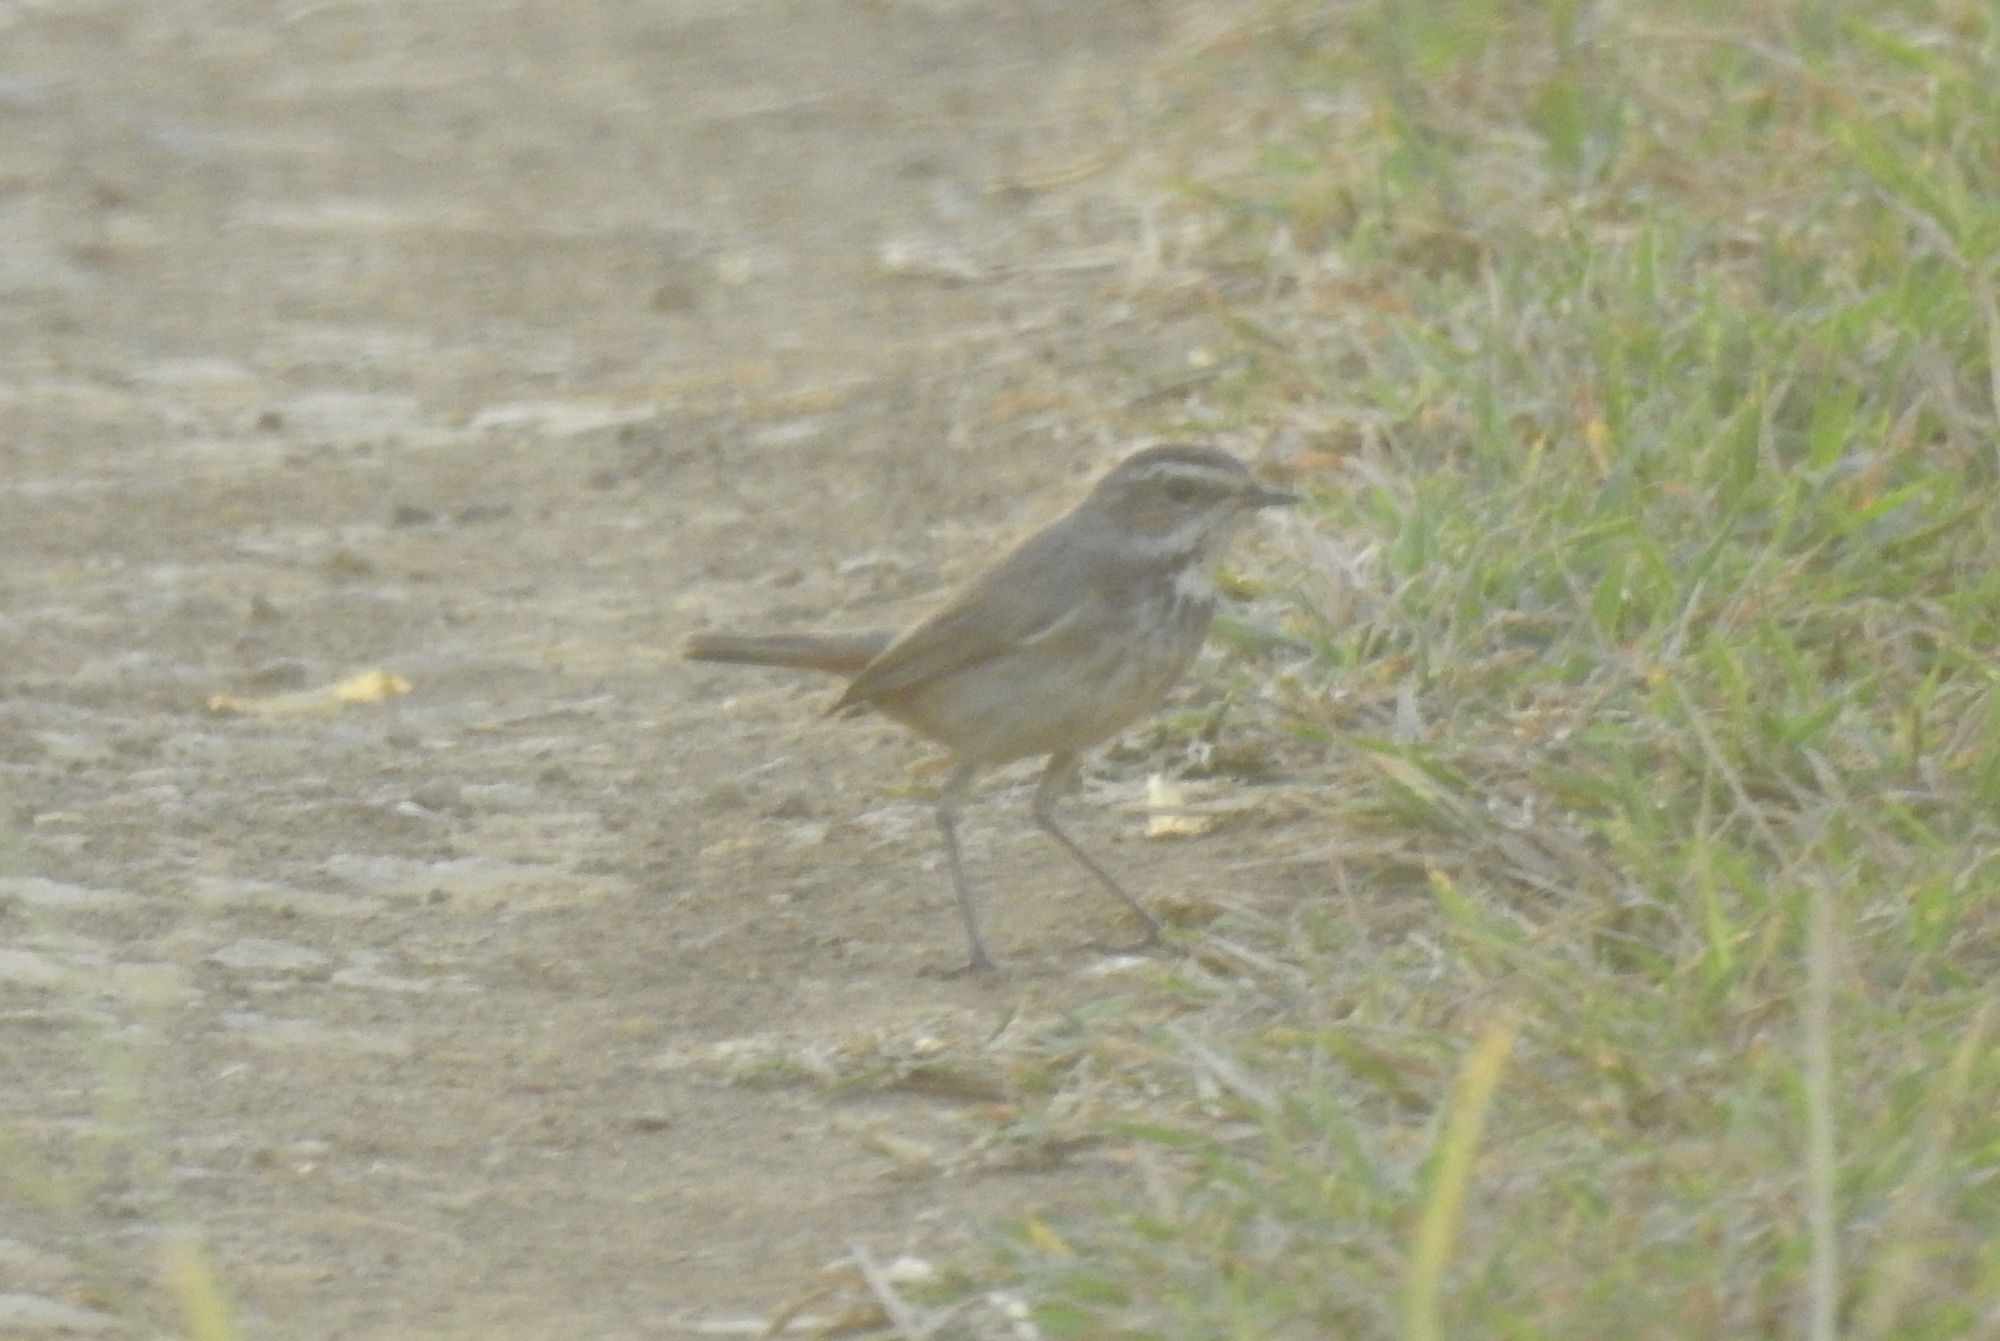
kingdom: Animalia
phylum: Chordata
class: Aves
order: Passeriformes
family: Muscicapidae
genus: Luscinia
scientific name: Luscinia svecica
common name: Bluethroat
